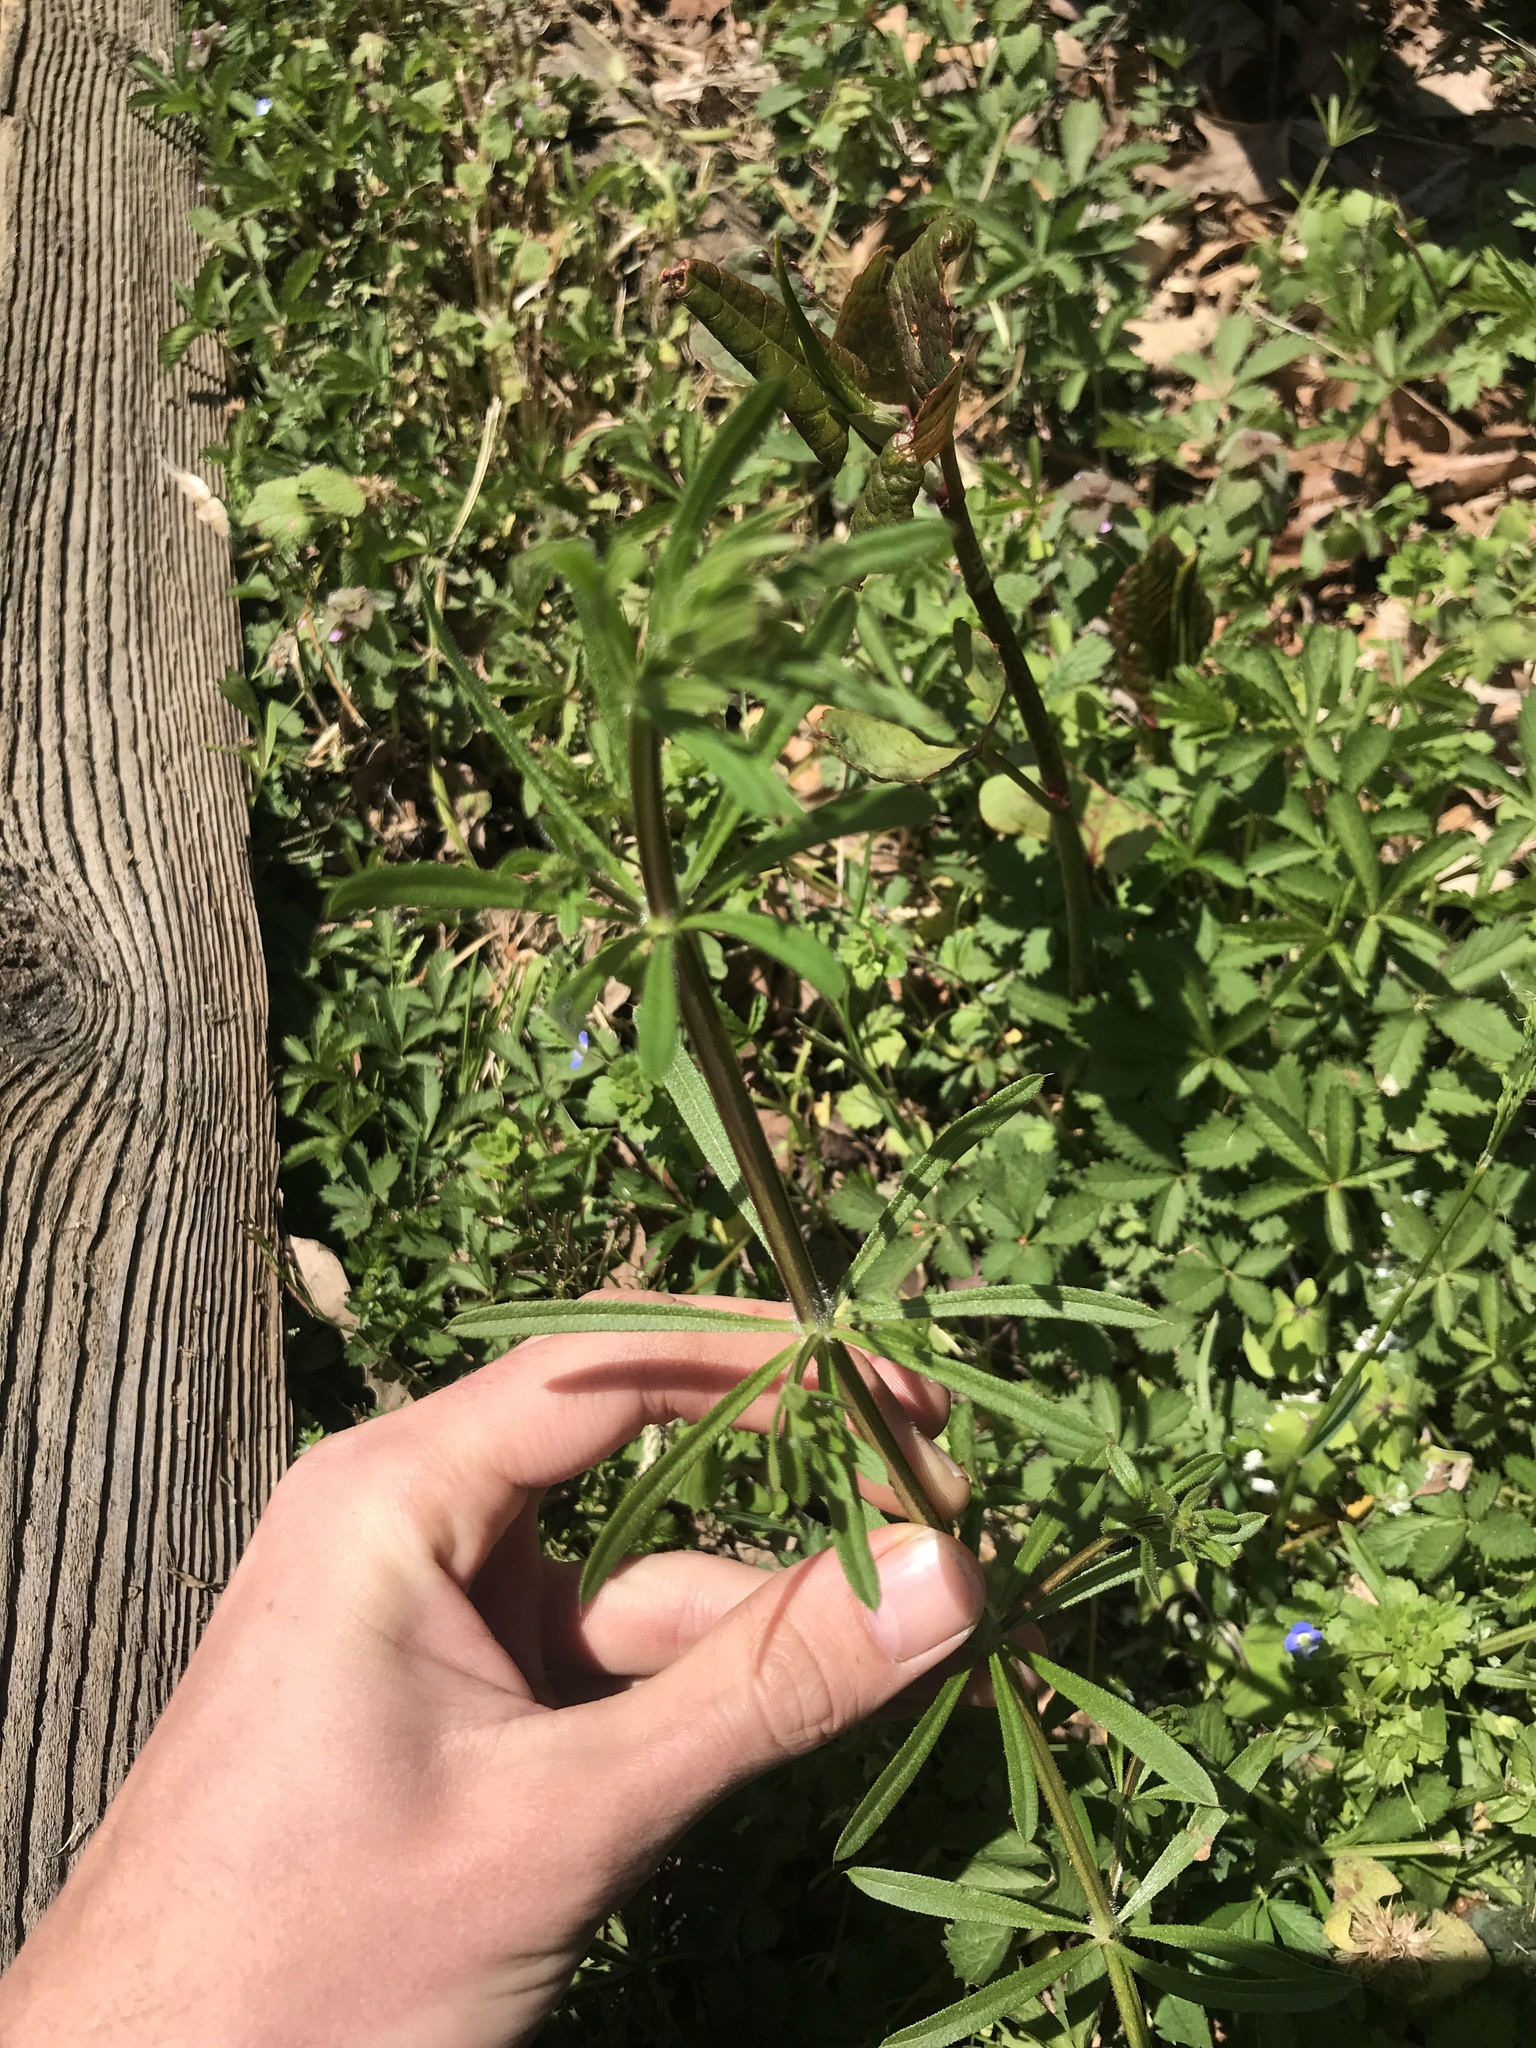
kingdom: Plantae
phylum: Tracheophyta
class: Magnoliopsida
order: Gentianales
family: Rubiaceae
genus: Galium
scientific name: Galium aparine
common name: Cleavers
